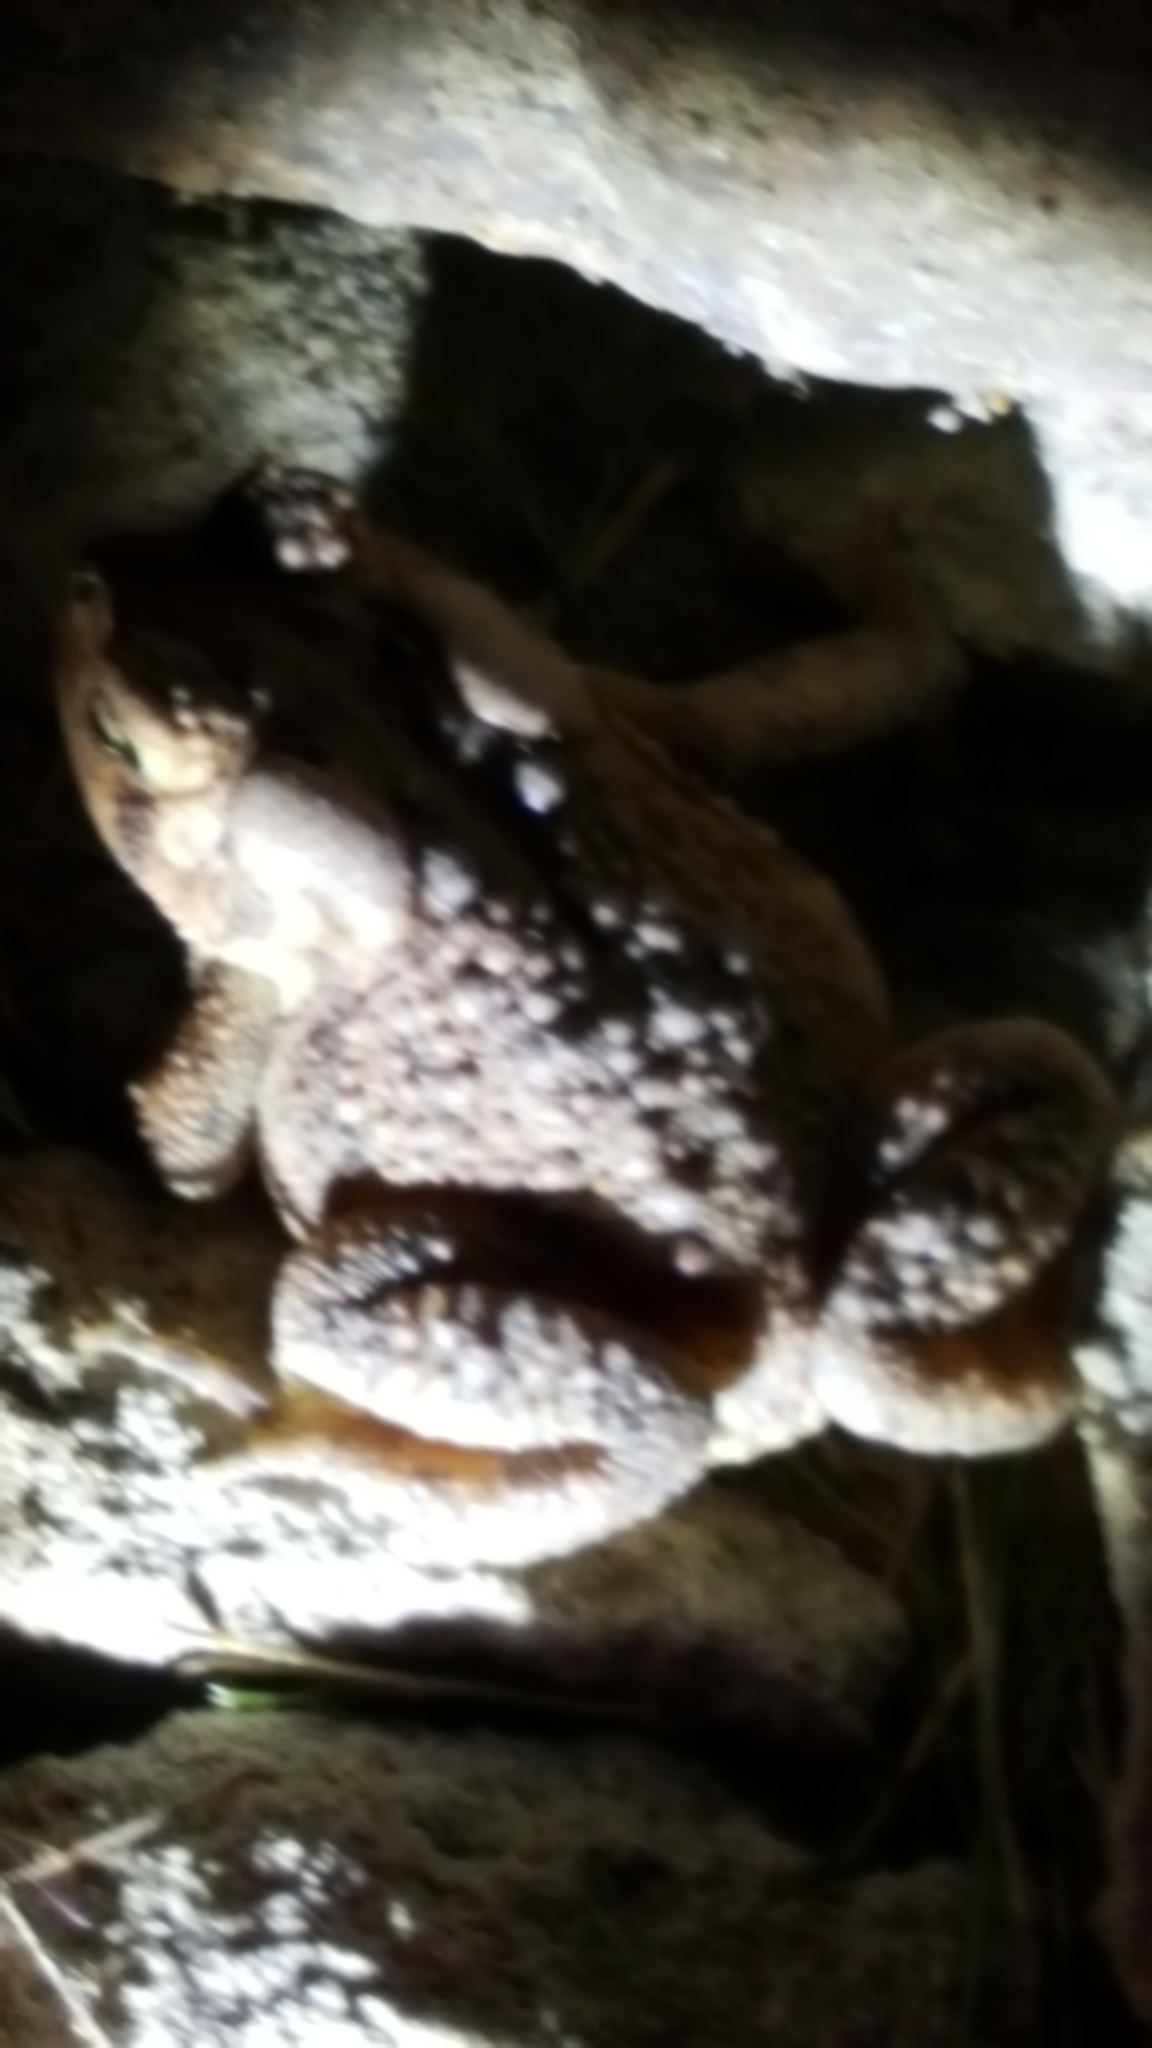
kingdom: Animalia
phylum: Chordata
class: Amphibia
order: Anura
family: Bufonidae
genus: Anaxyrus
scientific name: Anaxyrus americanus
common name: American toad
